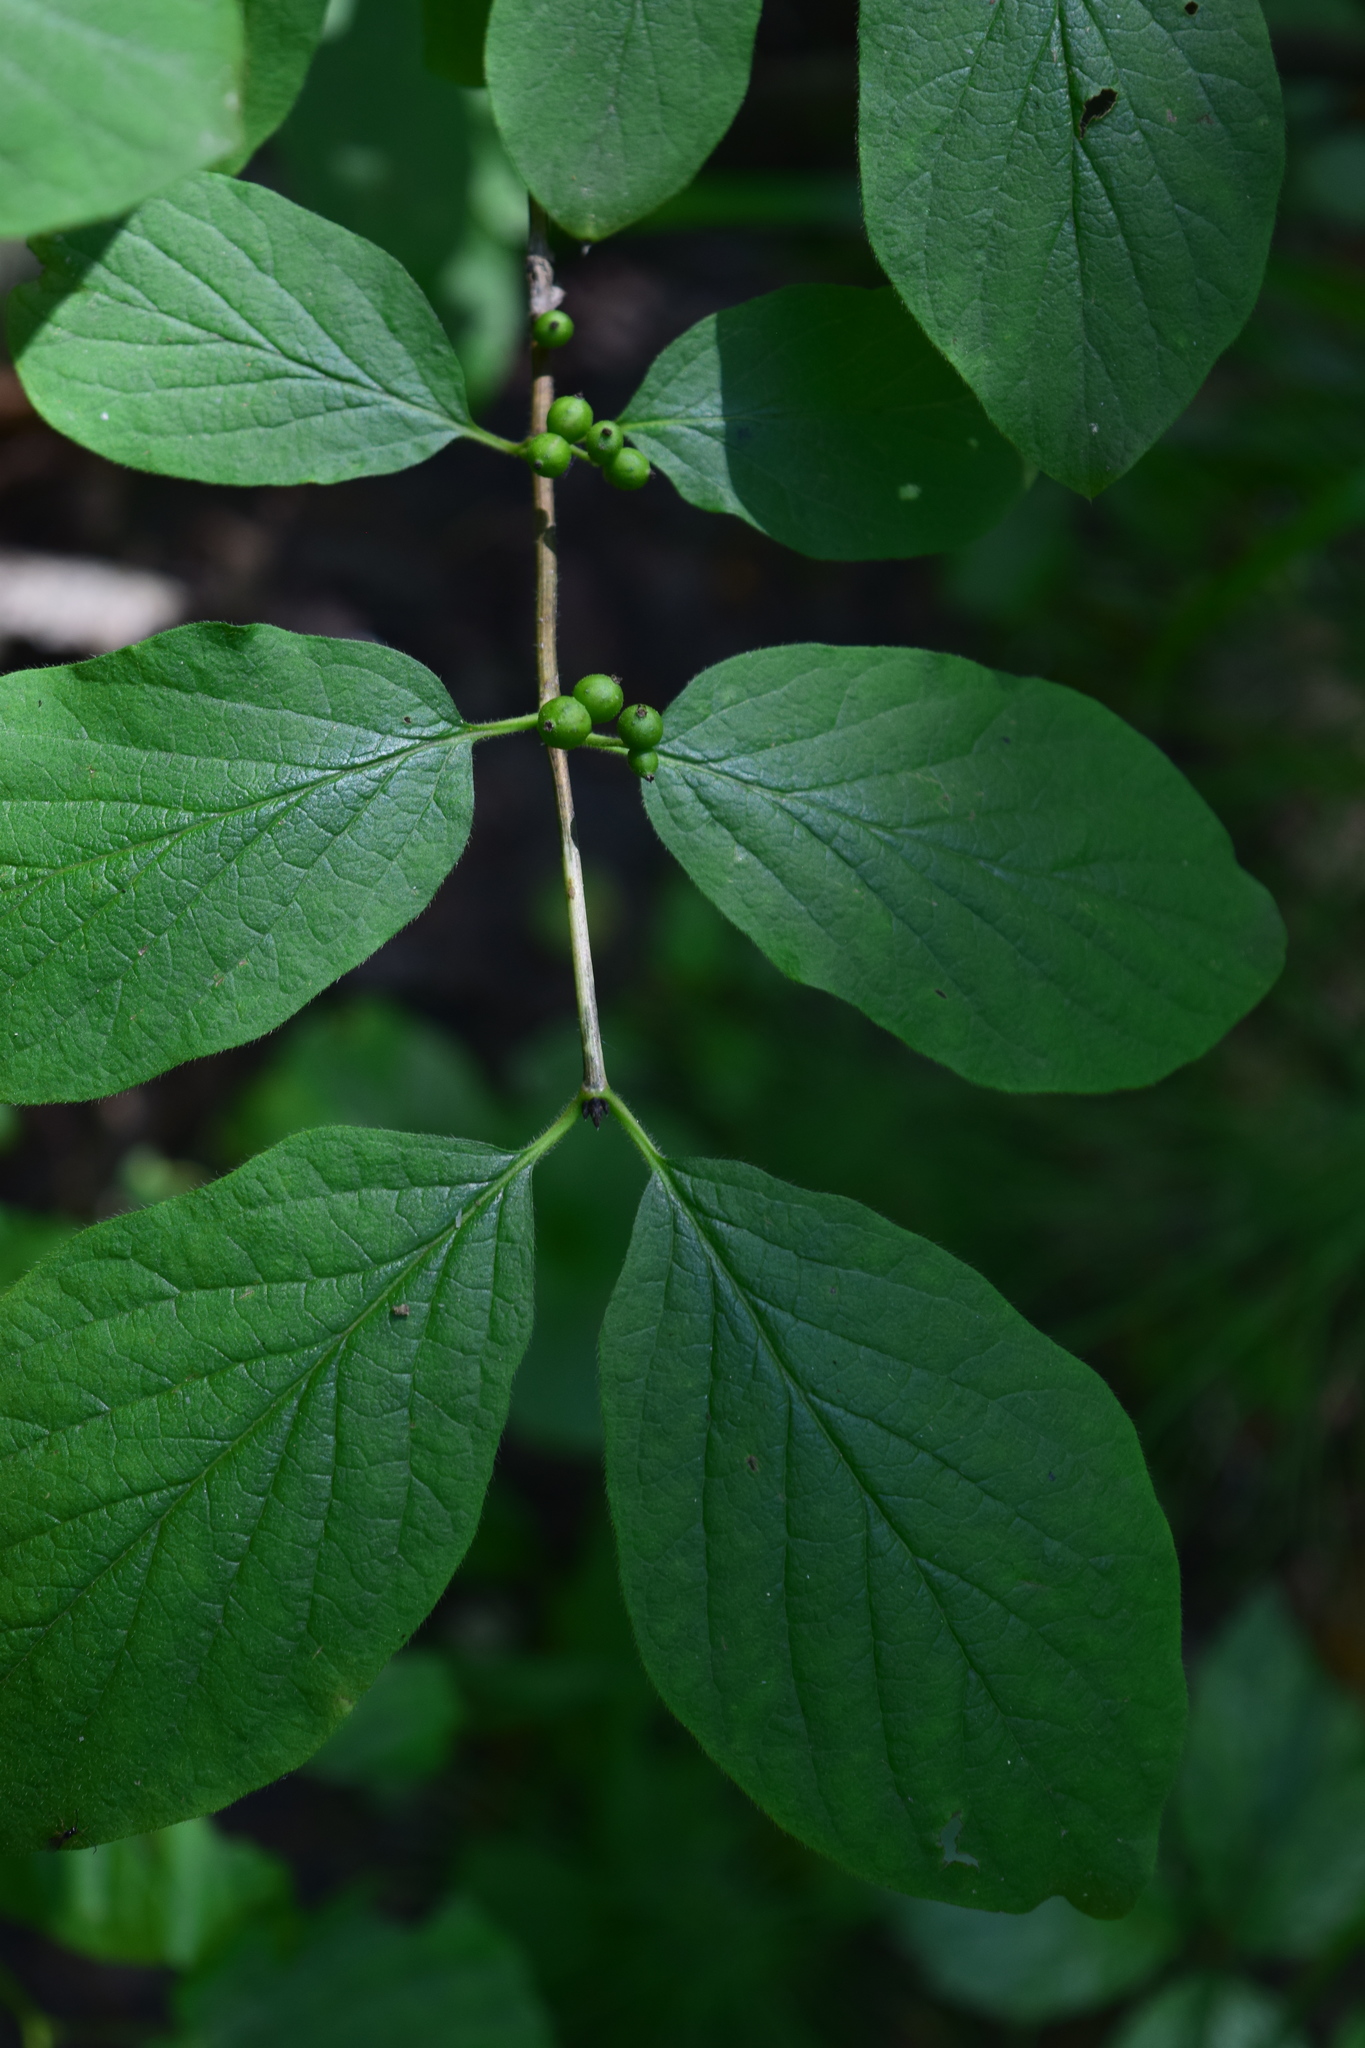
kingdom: Plantae
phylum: Tracheophyta
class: Magnoliopsida
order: Dipsacales
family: Caprifoliaceae
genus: Lonicera
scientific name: Lonicera xylosteum
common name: Fly honeysuckle
